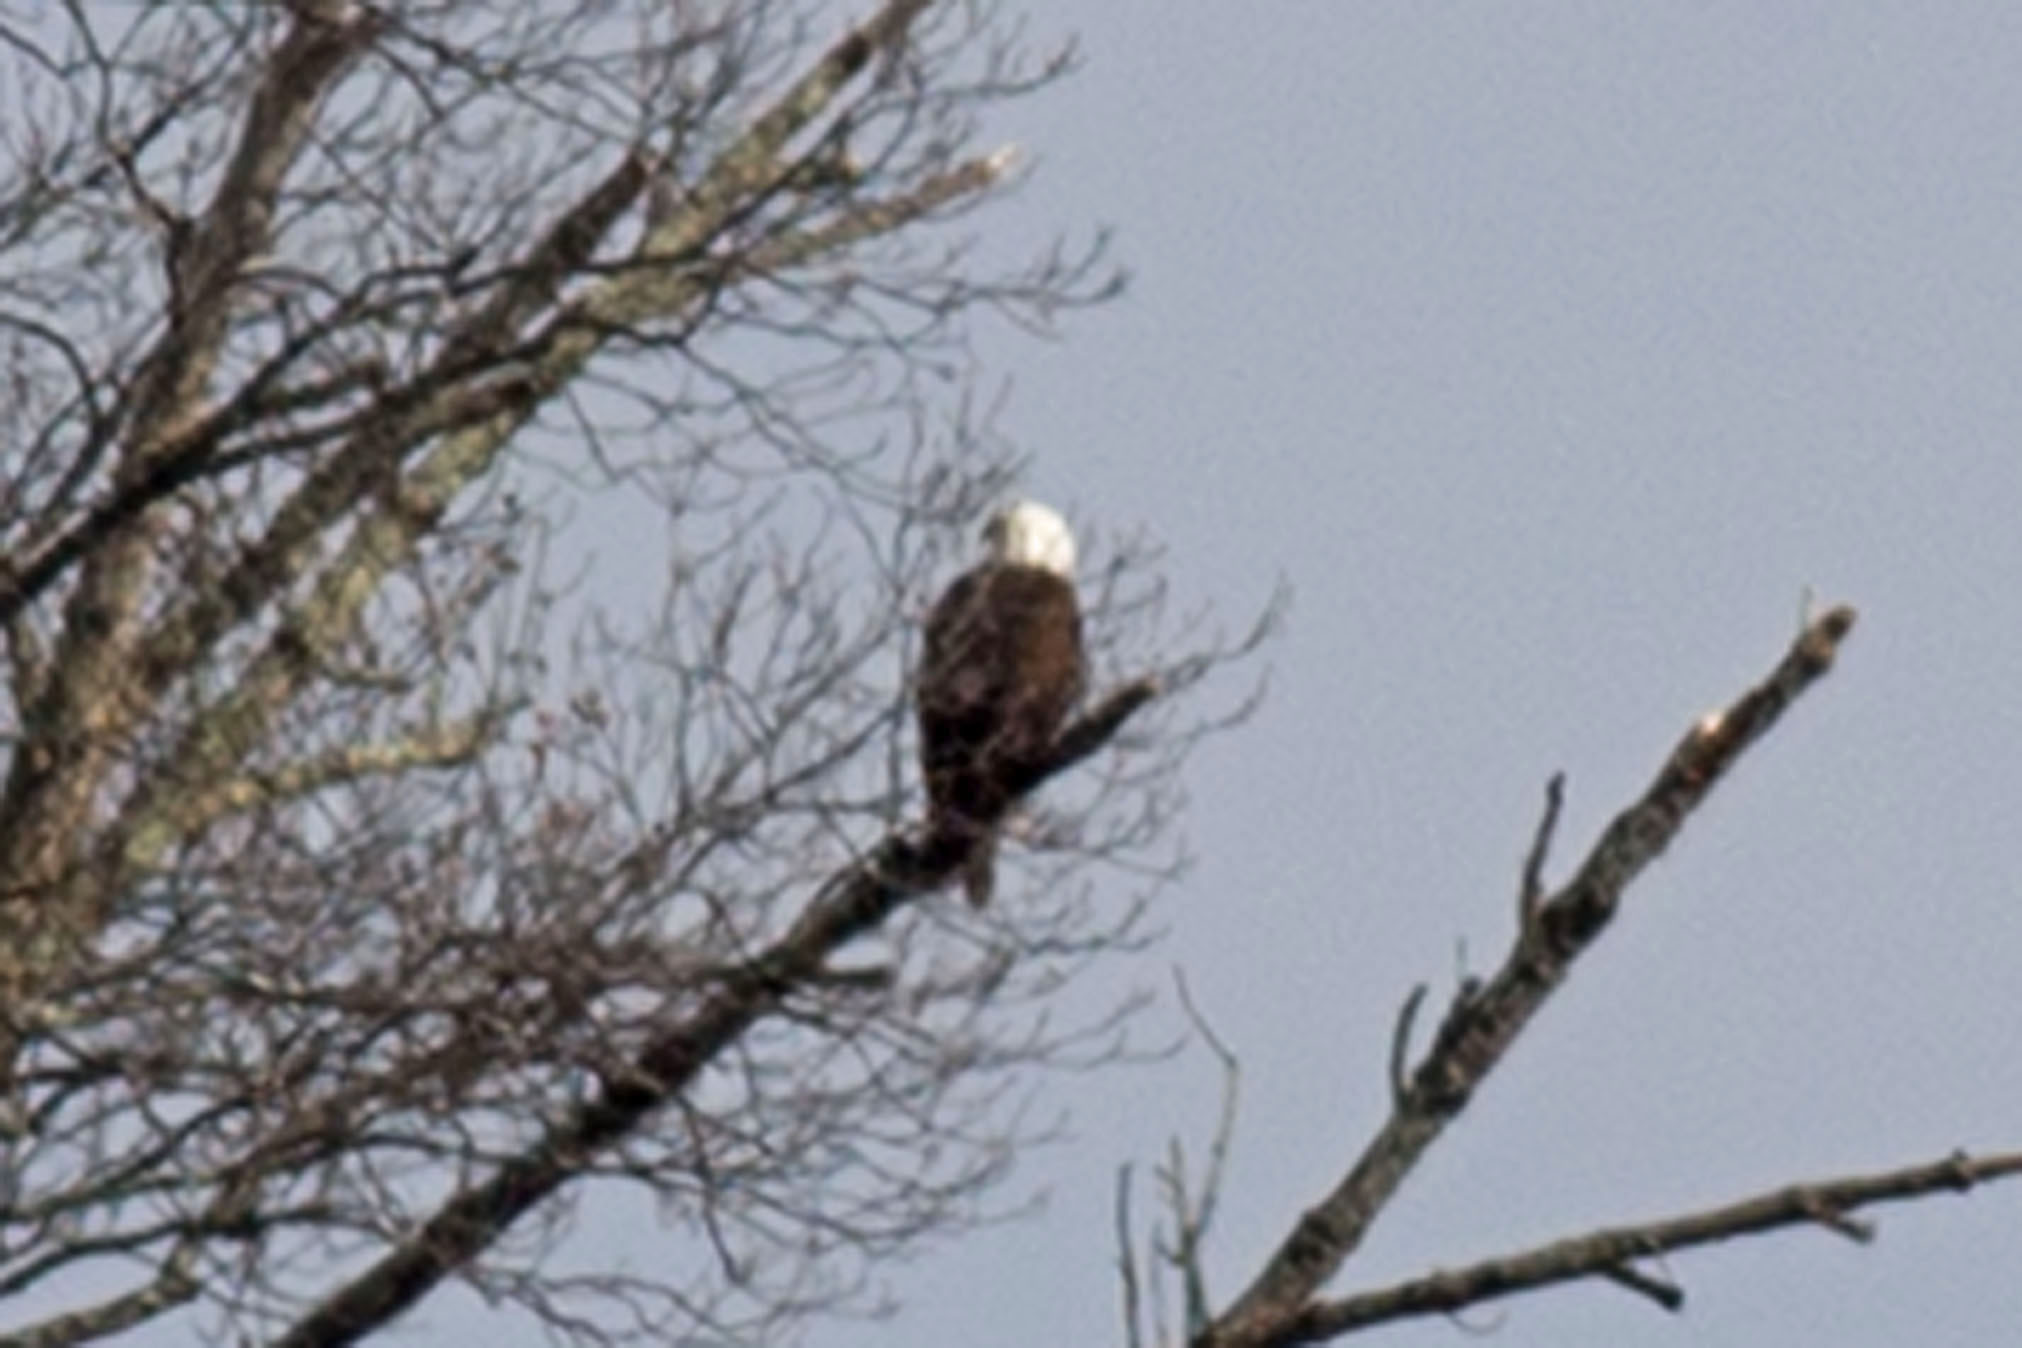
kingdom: Animalia
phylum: Chordata
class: Aves
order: Accipitriformes
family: Accipitridae
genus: Haliaeetus
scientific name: Haliaeetus leucocephalus
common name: Bald eagle
